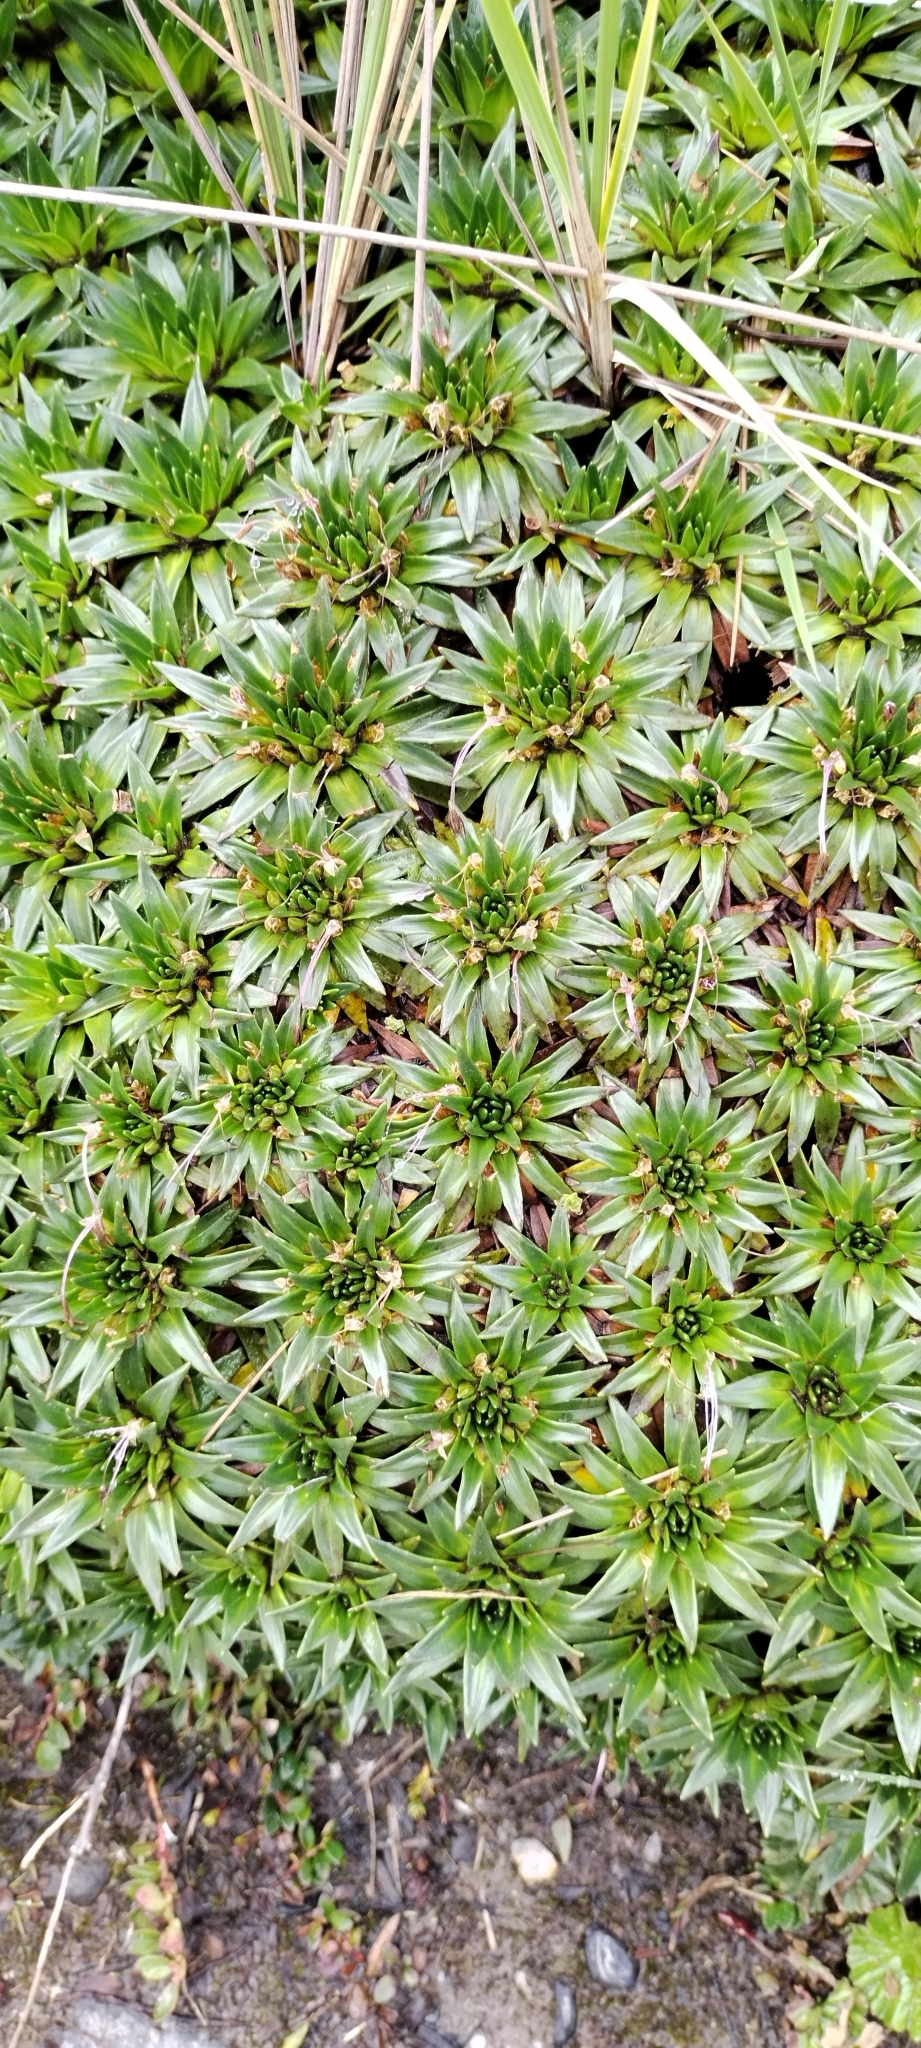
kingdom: Plantae
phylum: Tracheophyta
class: Magnoliopsida
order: Lamiales
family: Plantaginaceae
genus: Plantago
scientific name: Plantago rigida
